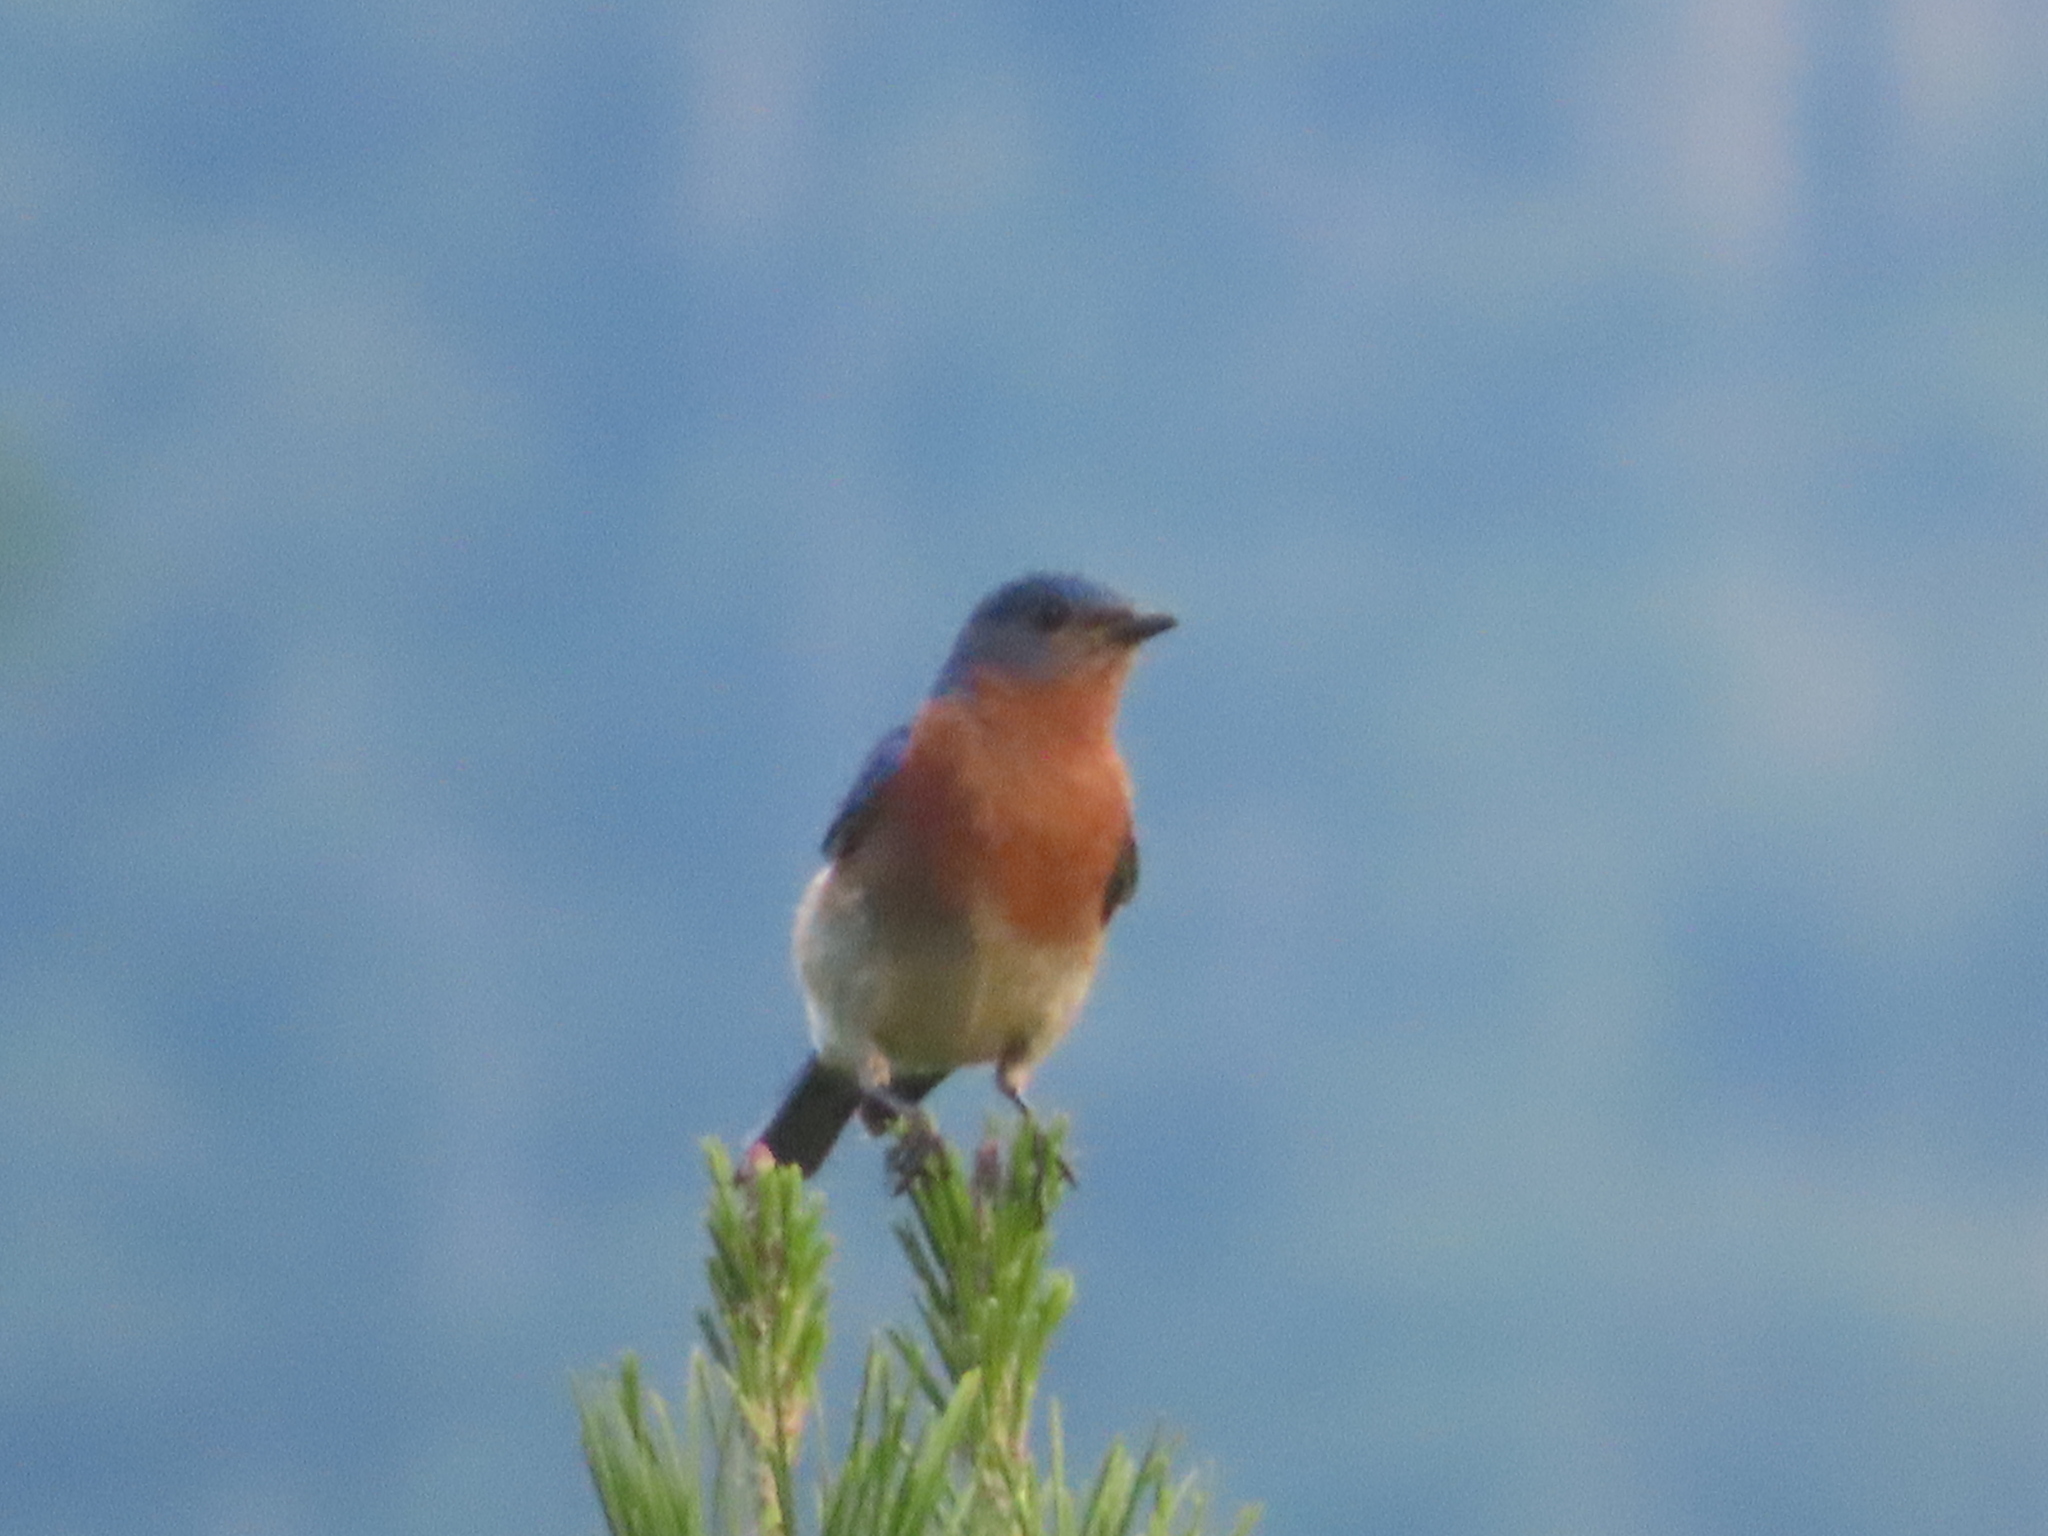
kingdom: Animalia
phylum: Chordata
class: Aves
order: Passeriformes
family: Turdidae
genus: Sialia
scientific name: Sialia sialis
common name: Eastern bluebird
